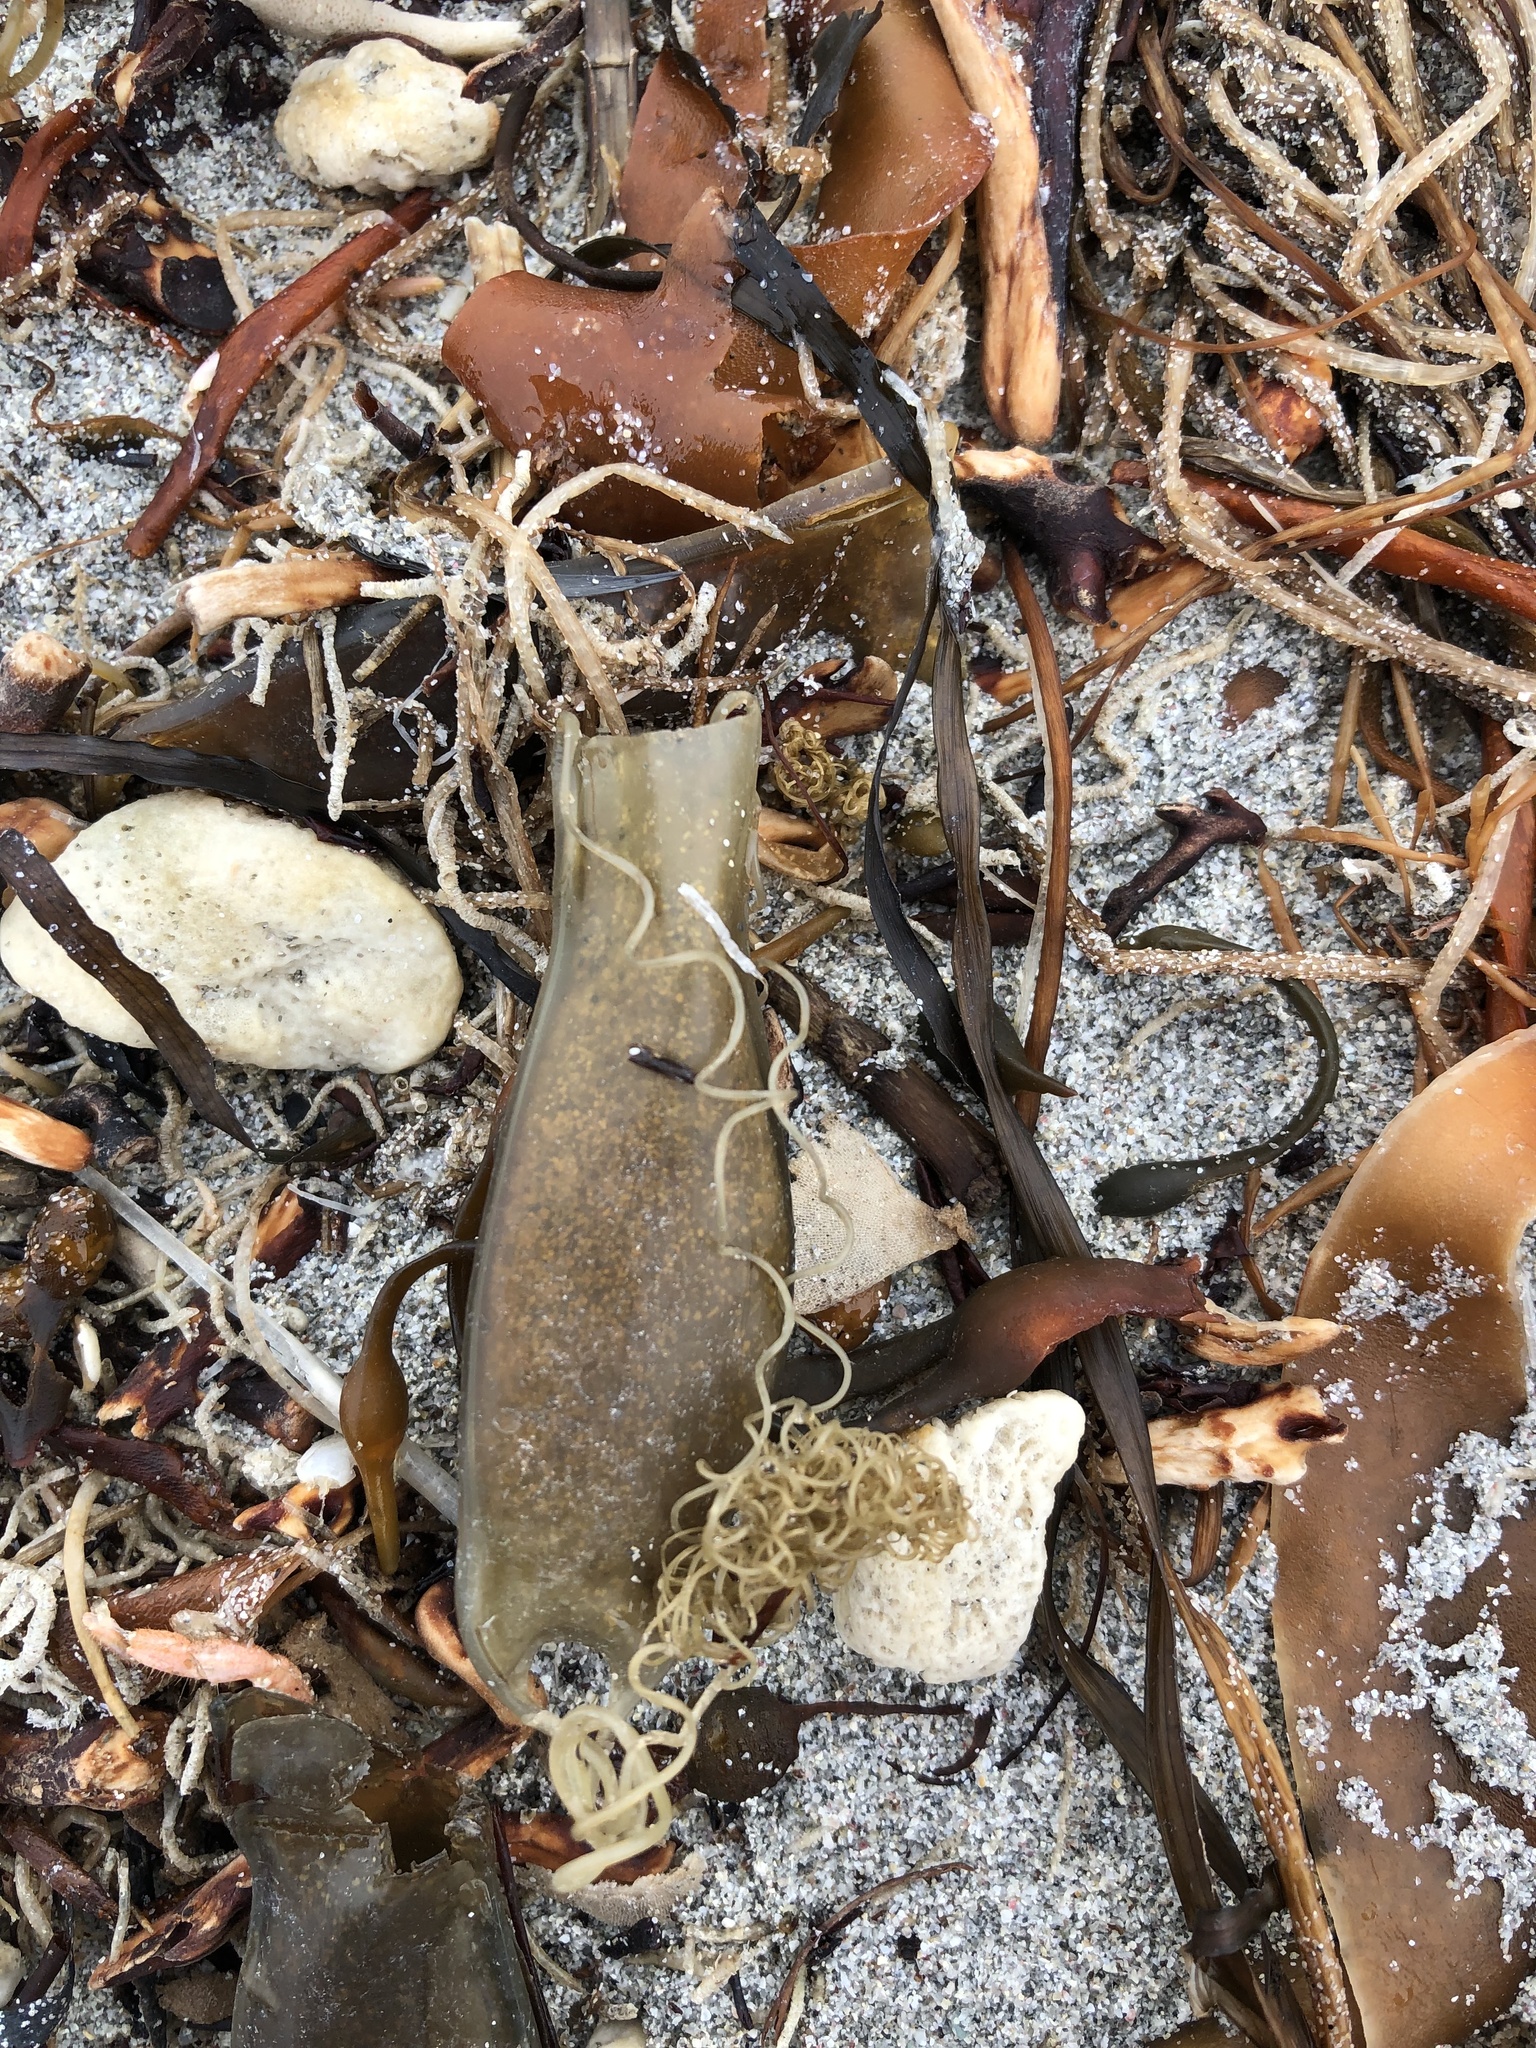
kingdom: Animalia
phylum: Chordata
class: Elasmobranchii
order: Carcharhiniformes
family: Scyliorhinidae
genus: Scyliorhinus
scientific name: Scyliorhinus canicula
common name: Lesser spotted dogfish
